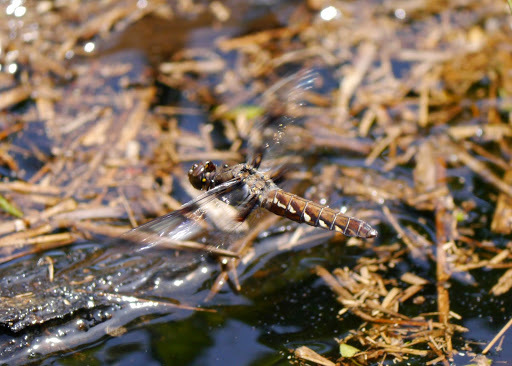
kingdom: Animalia
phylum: Arthropoda
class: Insecta
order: Odonata
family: Libellulidae
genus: Plathemis
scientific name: Plathemis lydia
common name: Common whitetail
